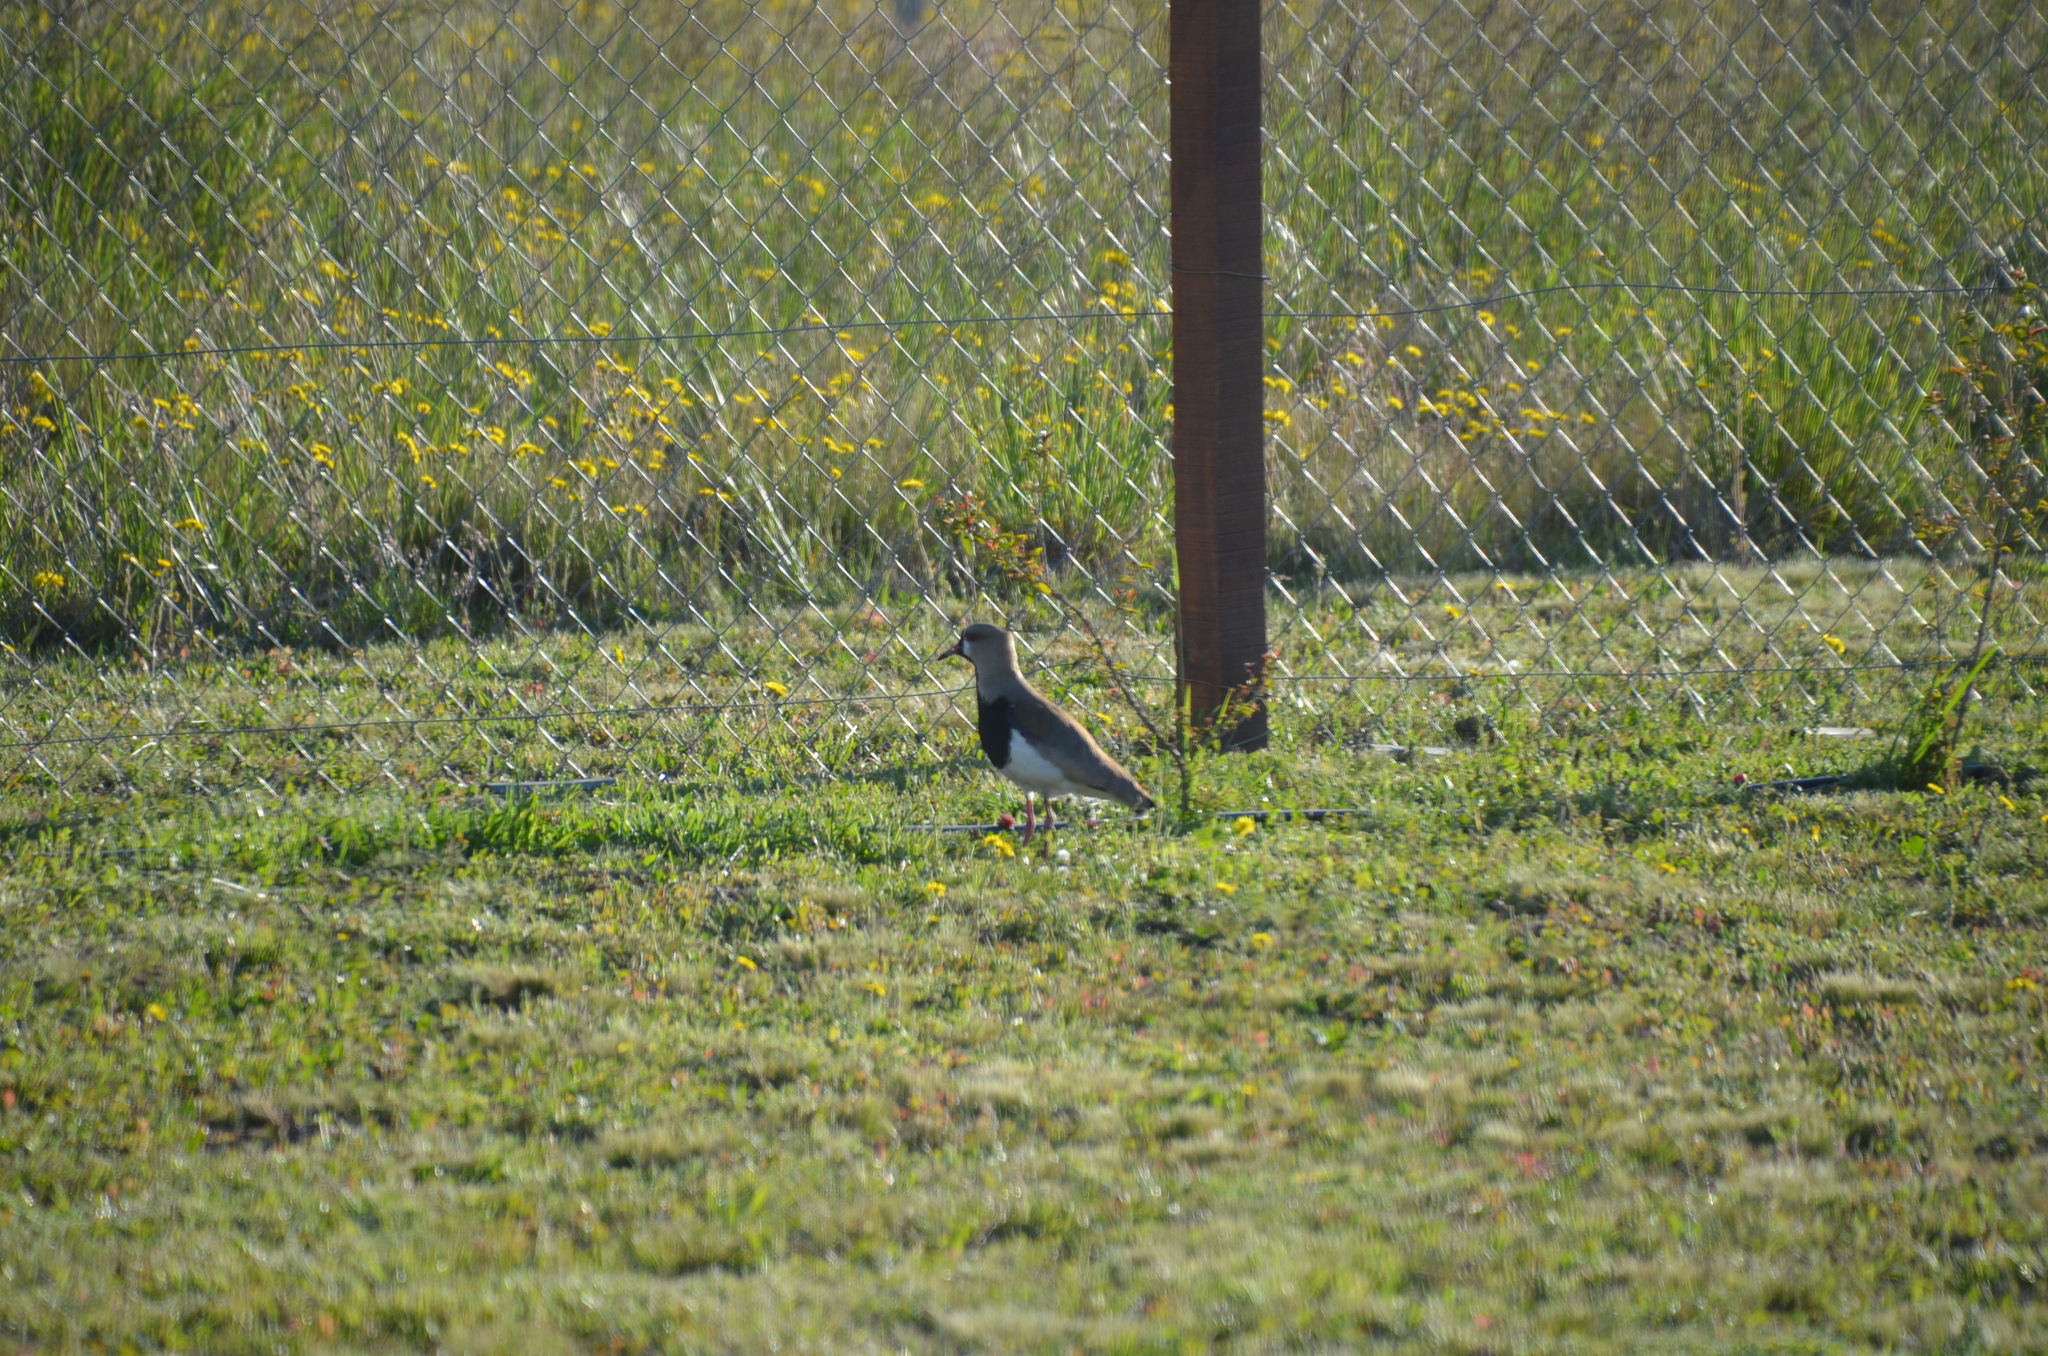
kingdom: Animalia
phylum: Chordata
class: Aves
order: Charadriiformes
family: Charadriidae
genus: Vanellus
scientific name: Vanellus chilensis
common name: Southern lapwing
